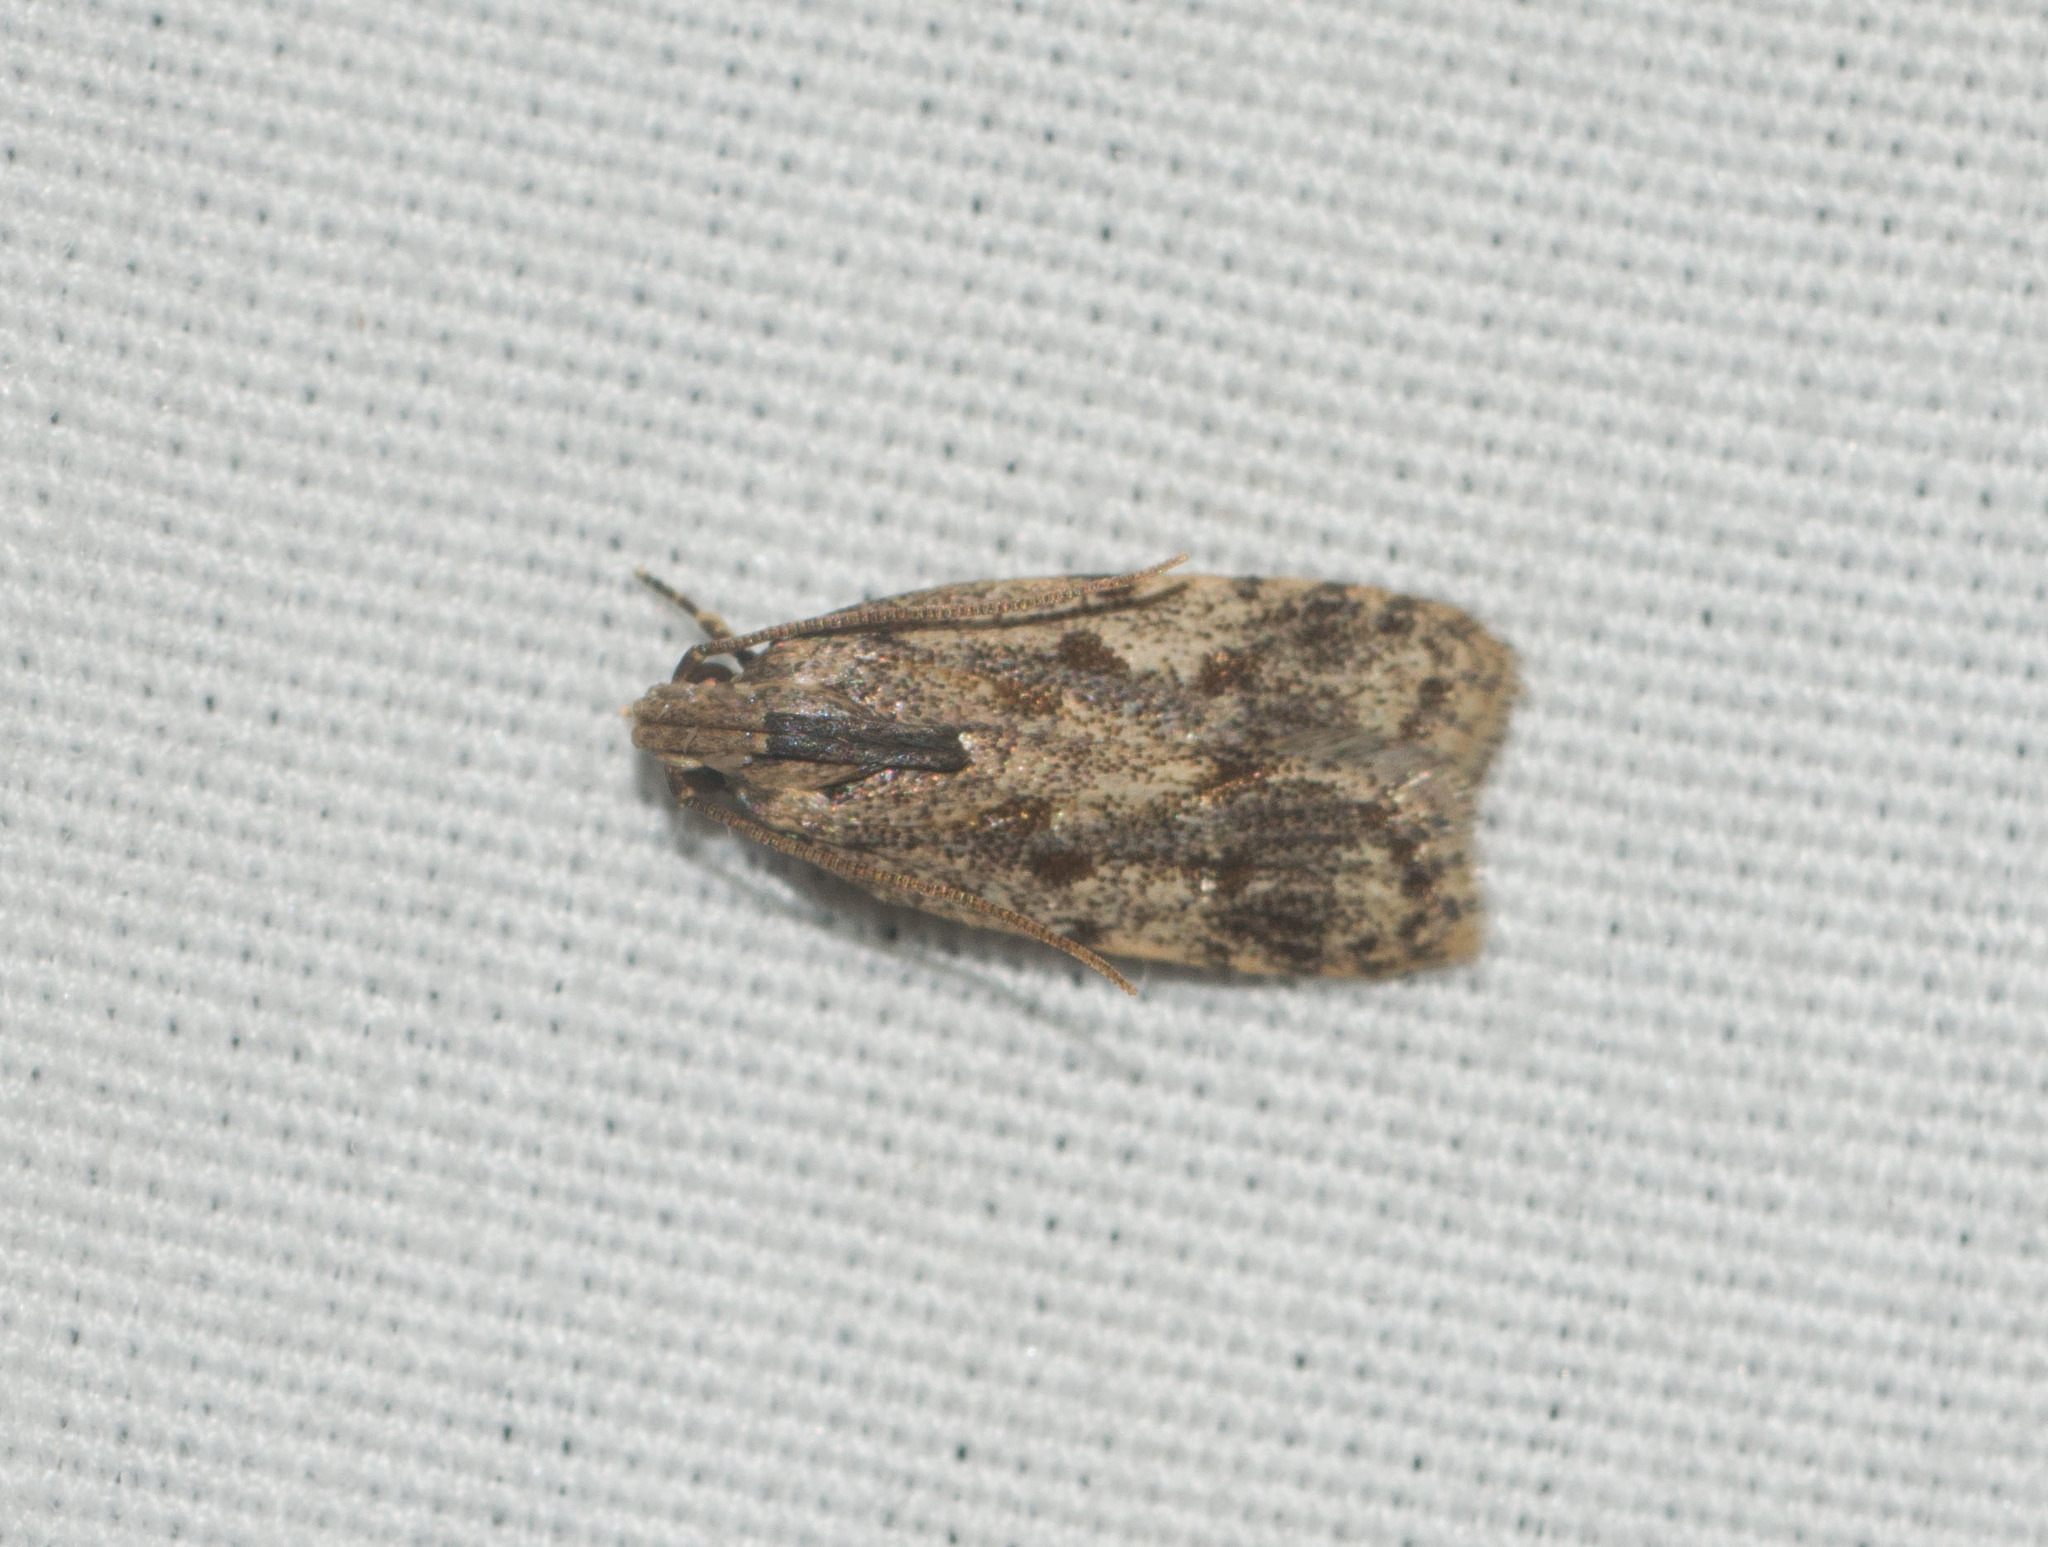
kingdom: Animalia
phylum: Arthropoda
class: Insecta
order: Lepidoptera
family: Autostichidae
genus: Stoeberhinus
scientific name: Stoeberhinus testaceus
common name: Moth
